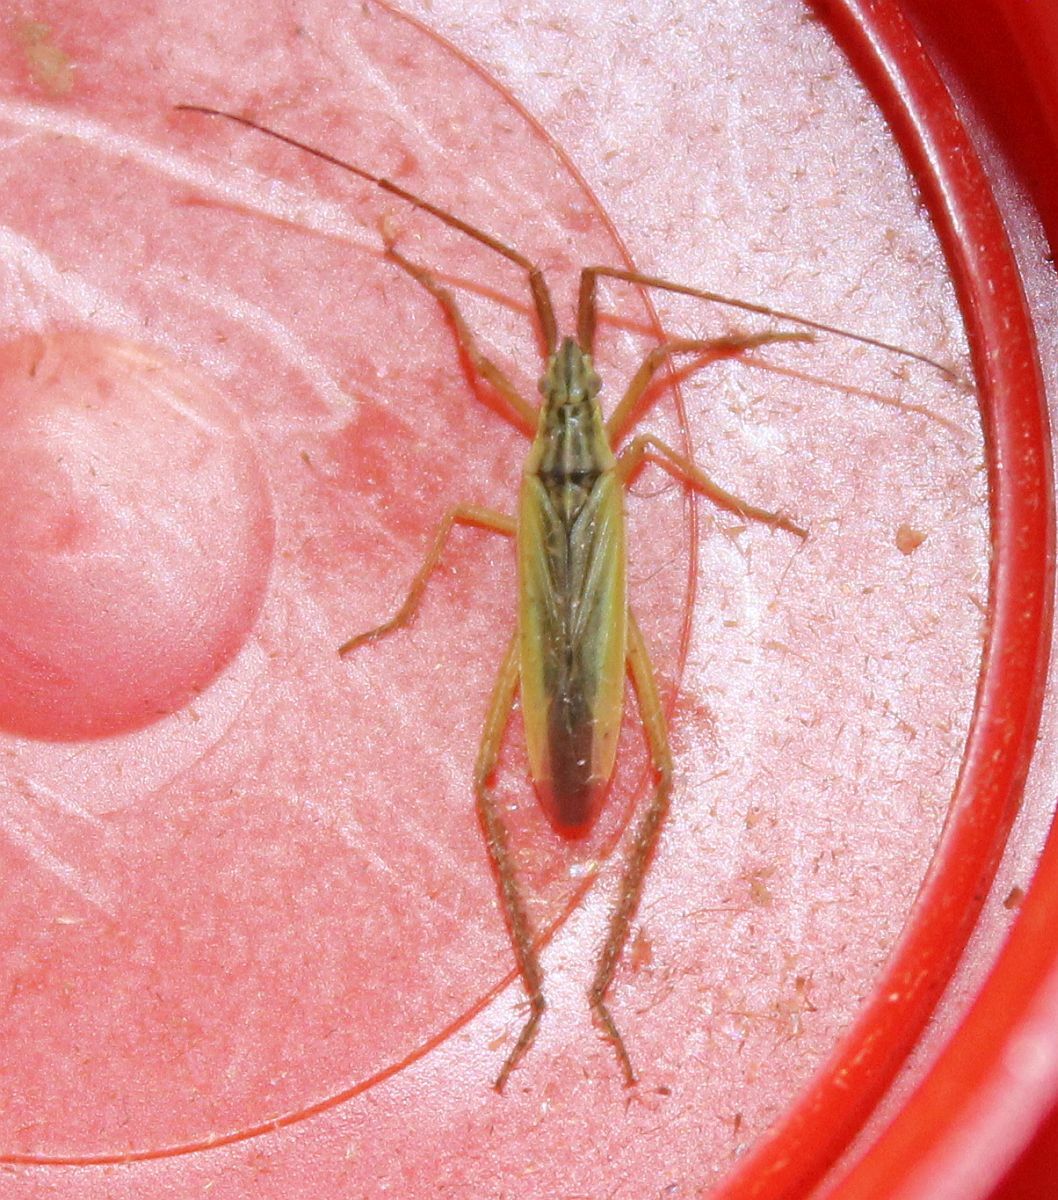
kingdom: Animalia
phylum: Arthropoda
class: Insecta
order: Hemiptera
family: Miridae
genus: Notostira
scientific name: Notostira elongata
